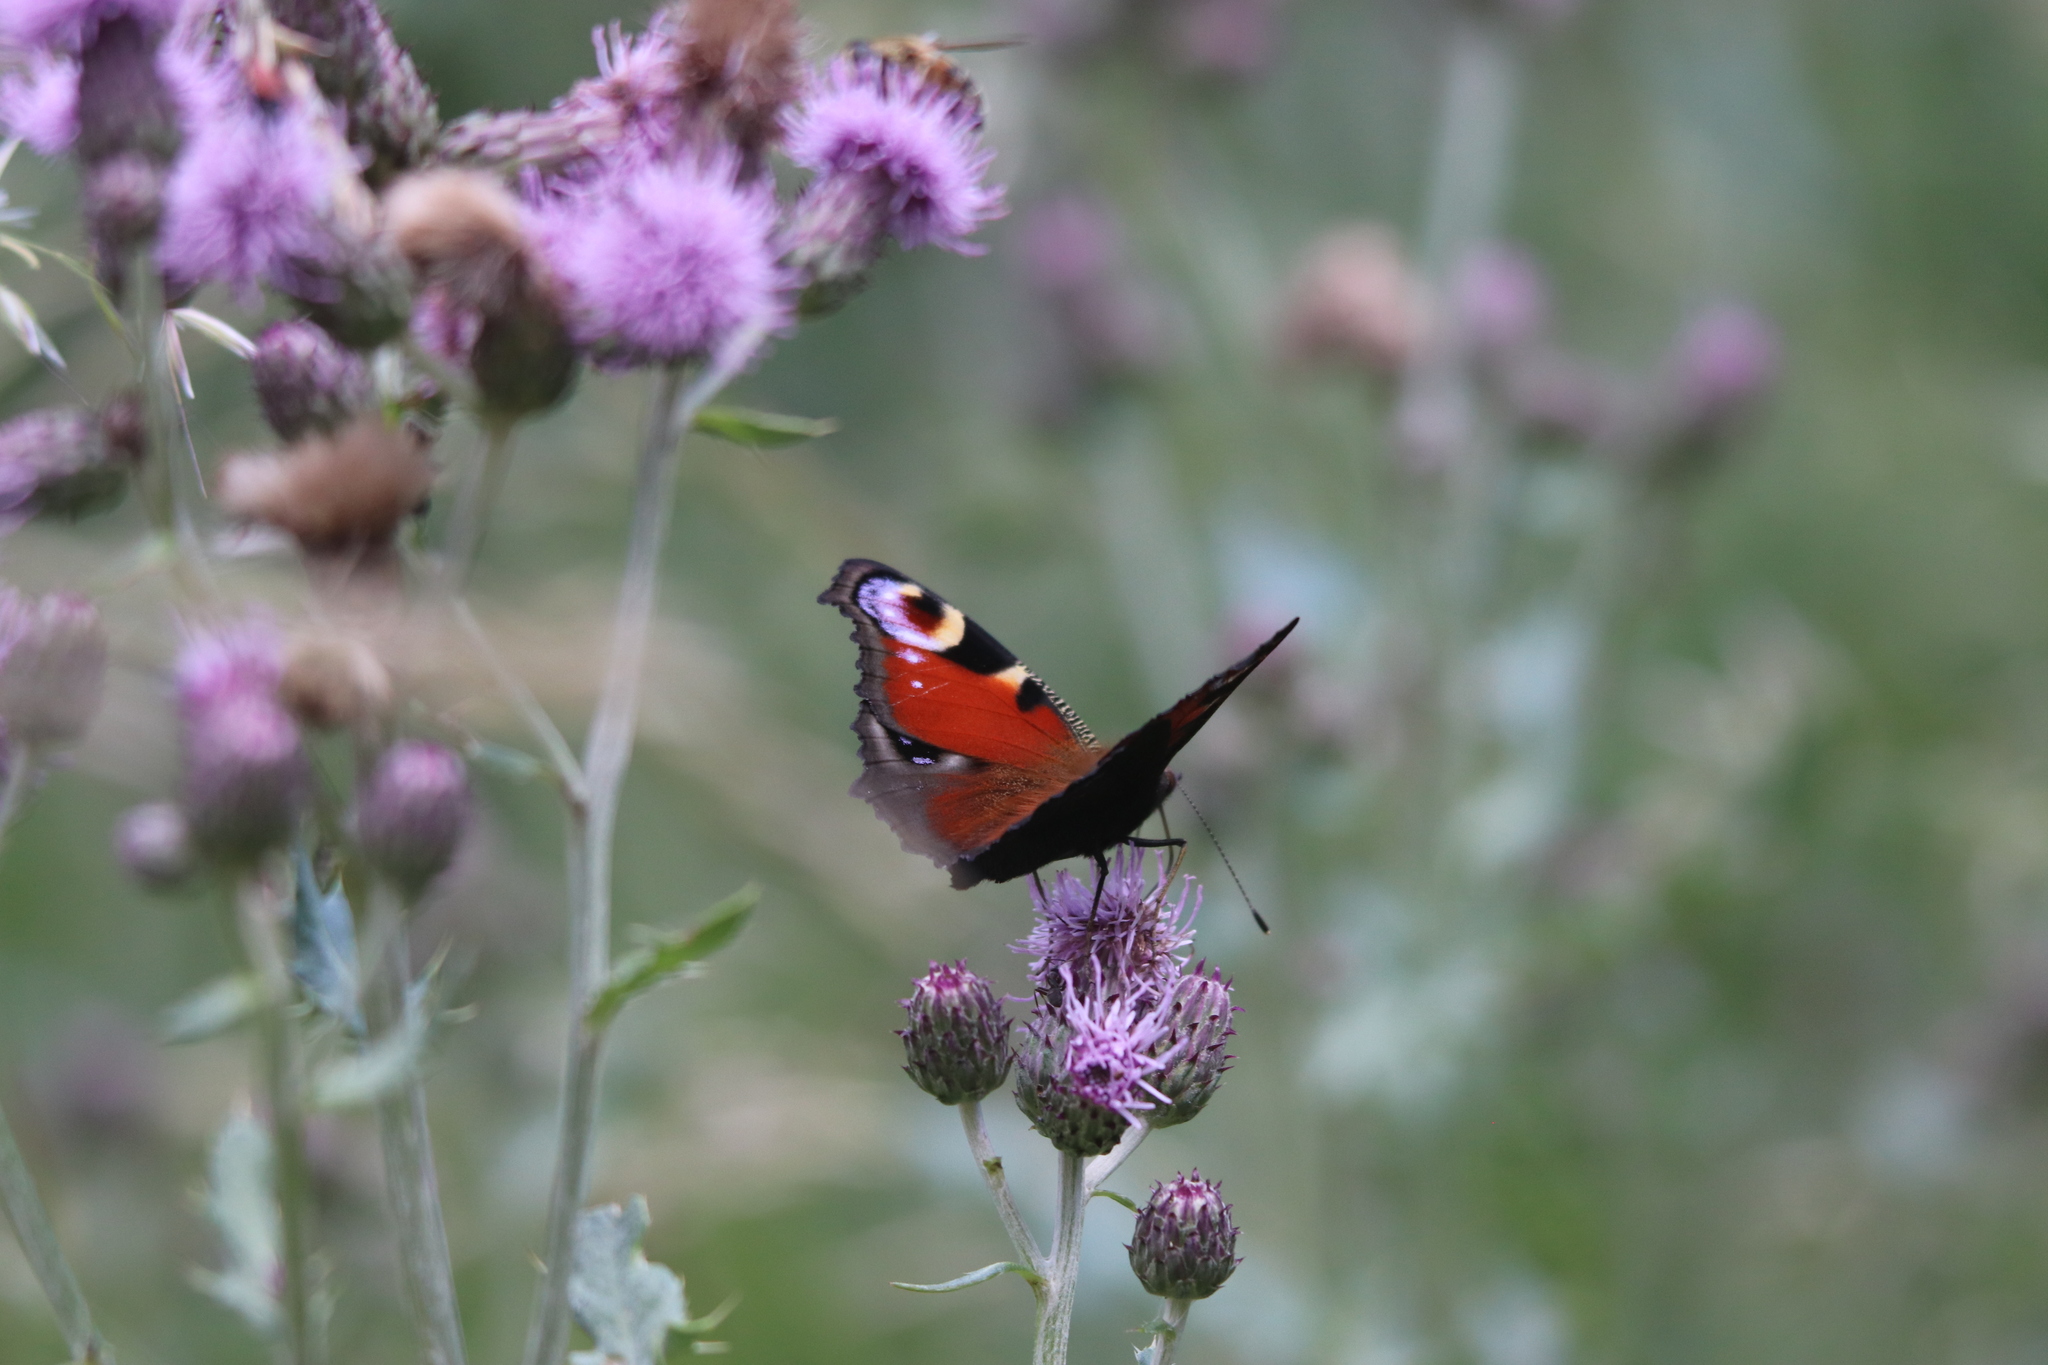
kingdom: Animalia
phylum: Arthropoda
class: Insecta
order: Lepidoptera
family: Nymphalidae
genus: Aglais
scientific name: Aglais io
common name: Peacock
